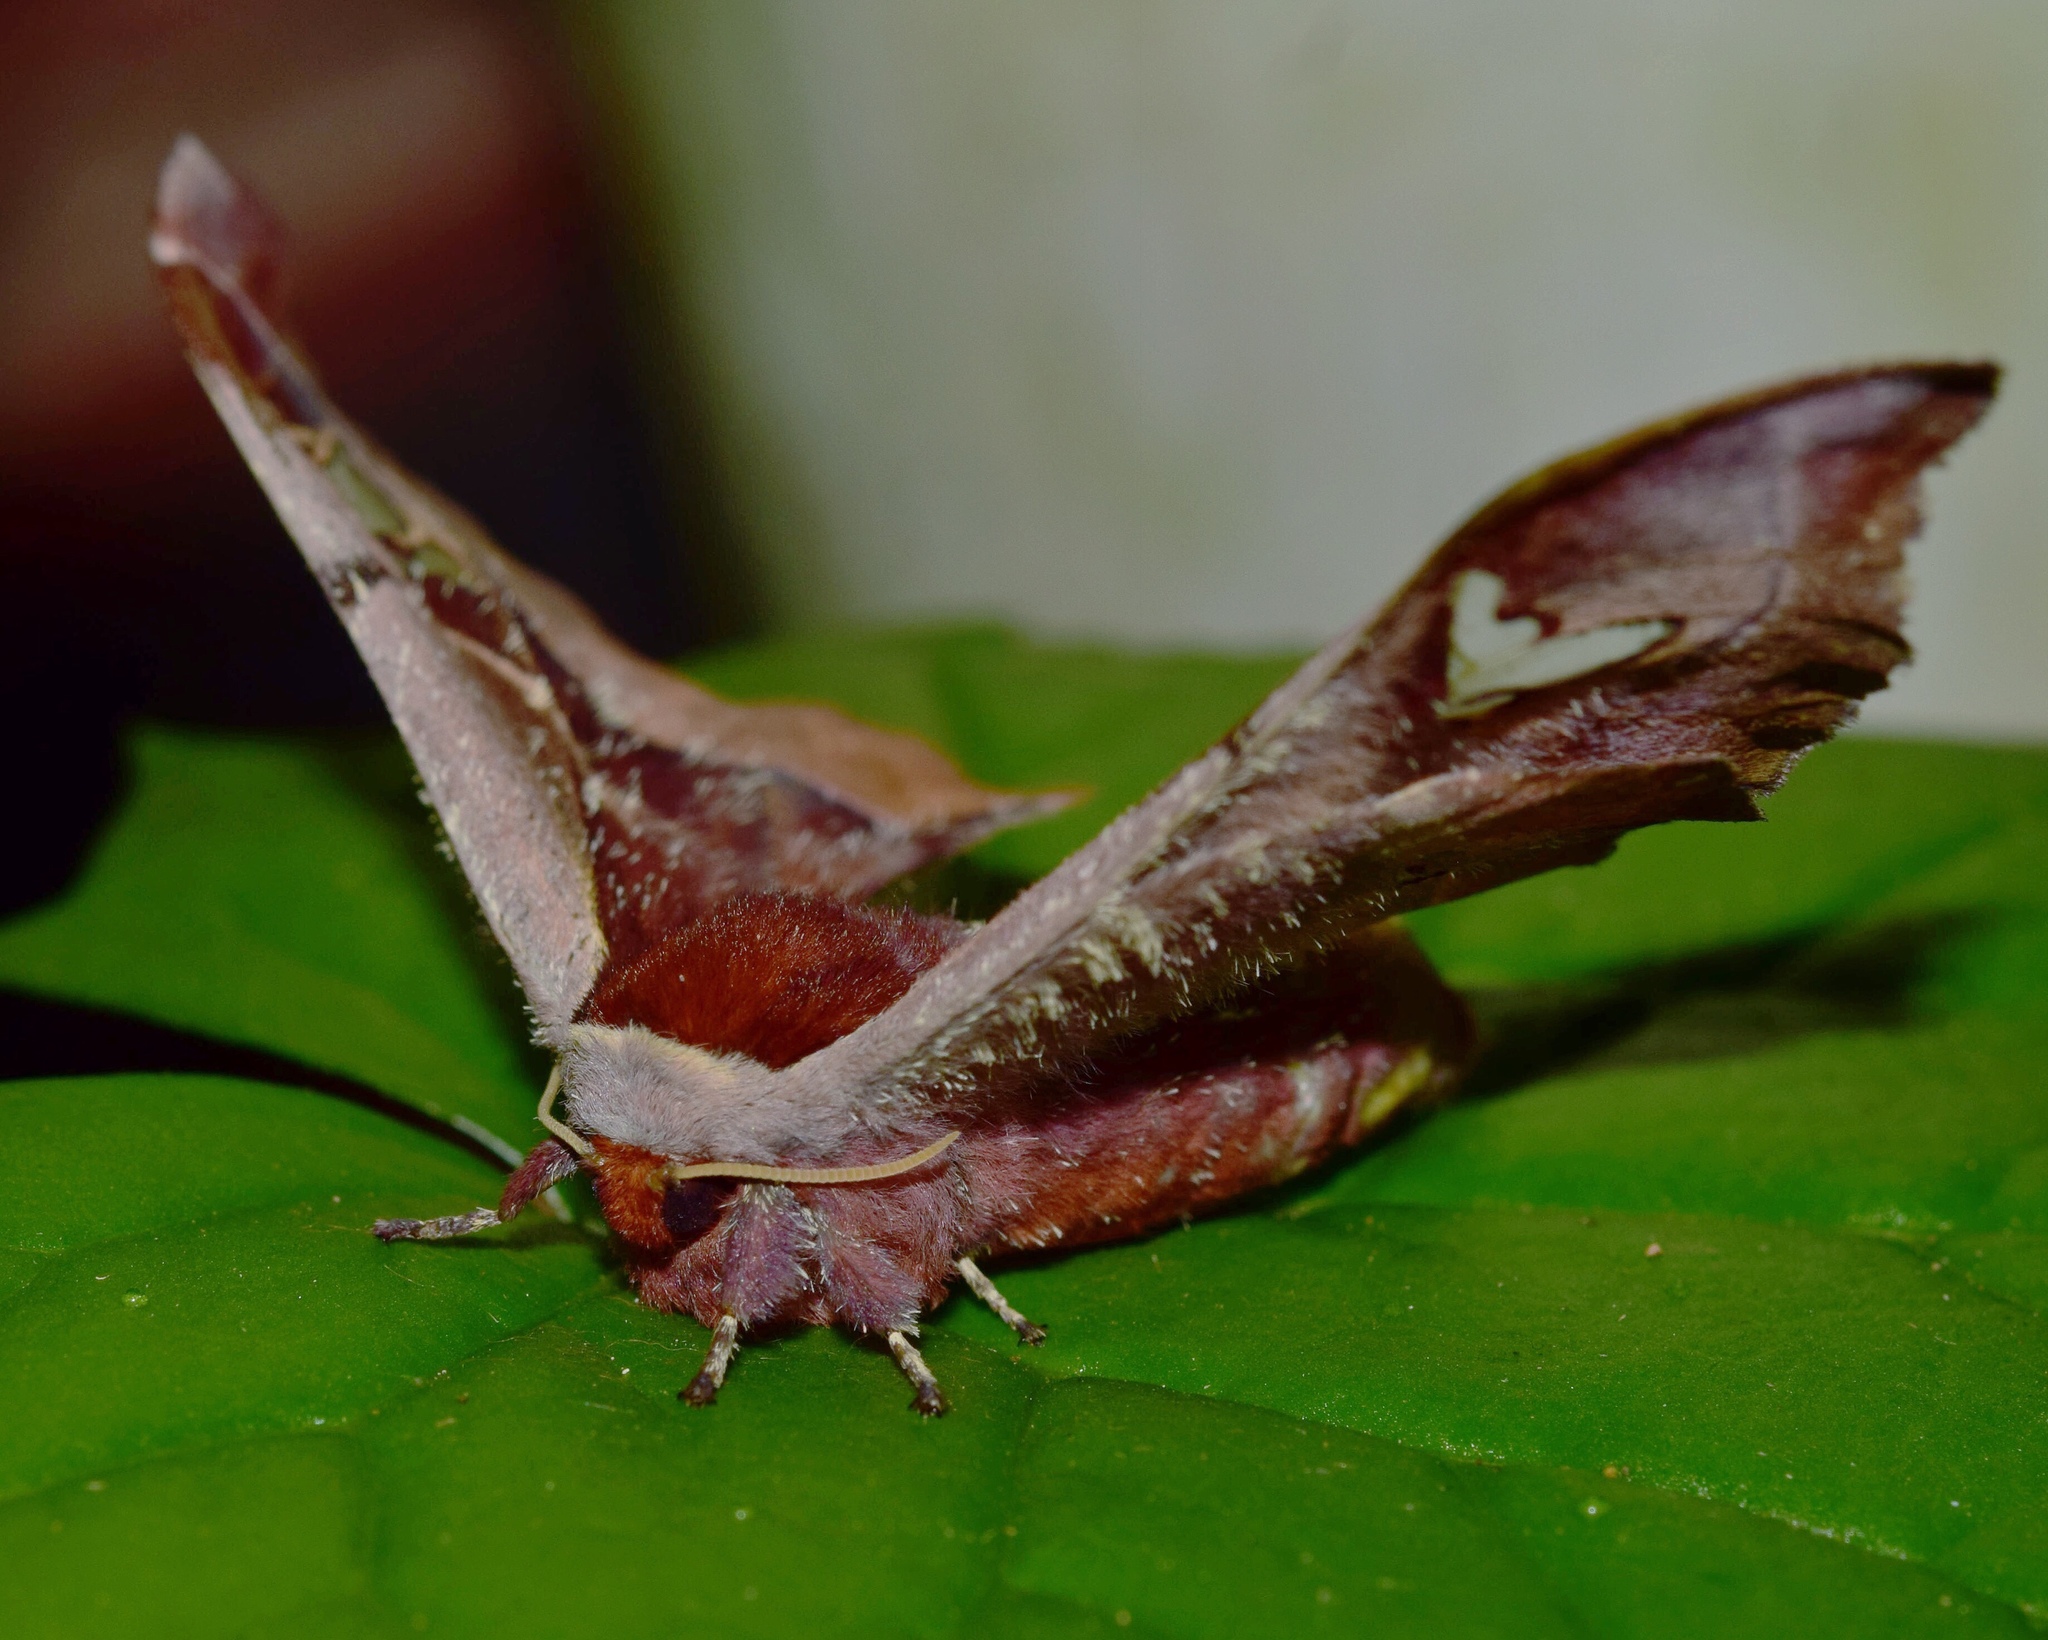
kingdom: Animalia
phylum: Arthropoda
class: Insecta
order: Lepidoptera
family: Saturniidae
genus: Holocerina
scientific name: Holocerina smilax
